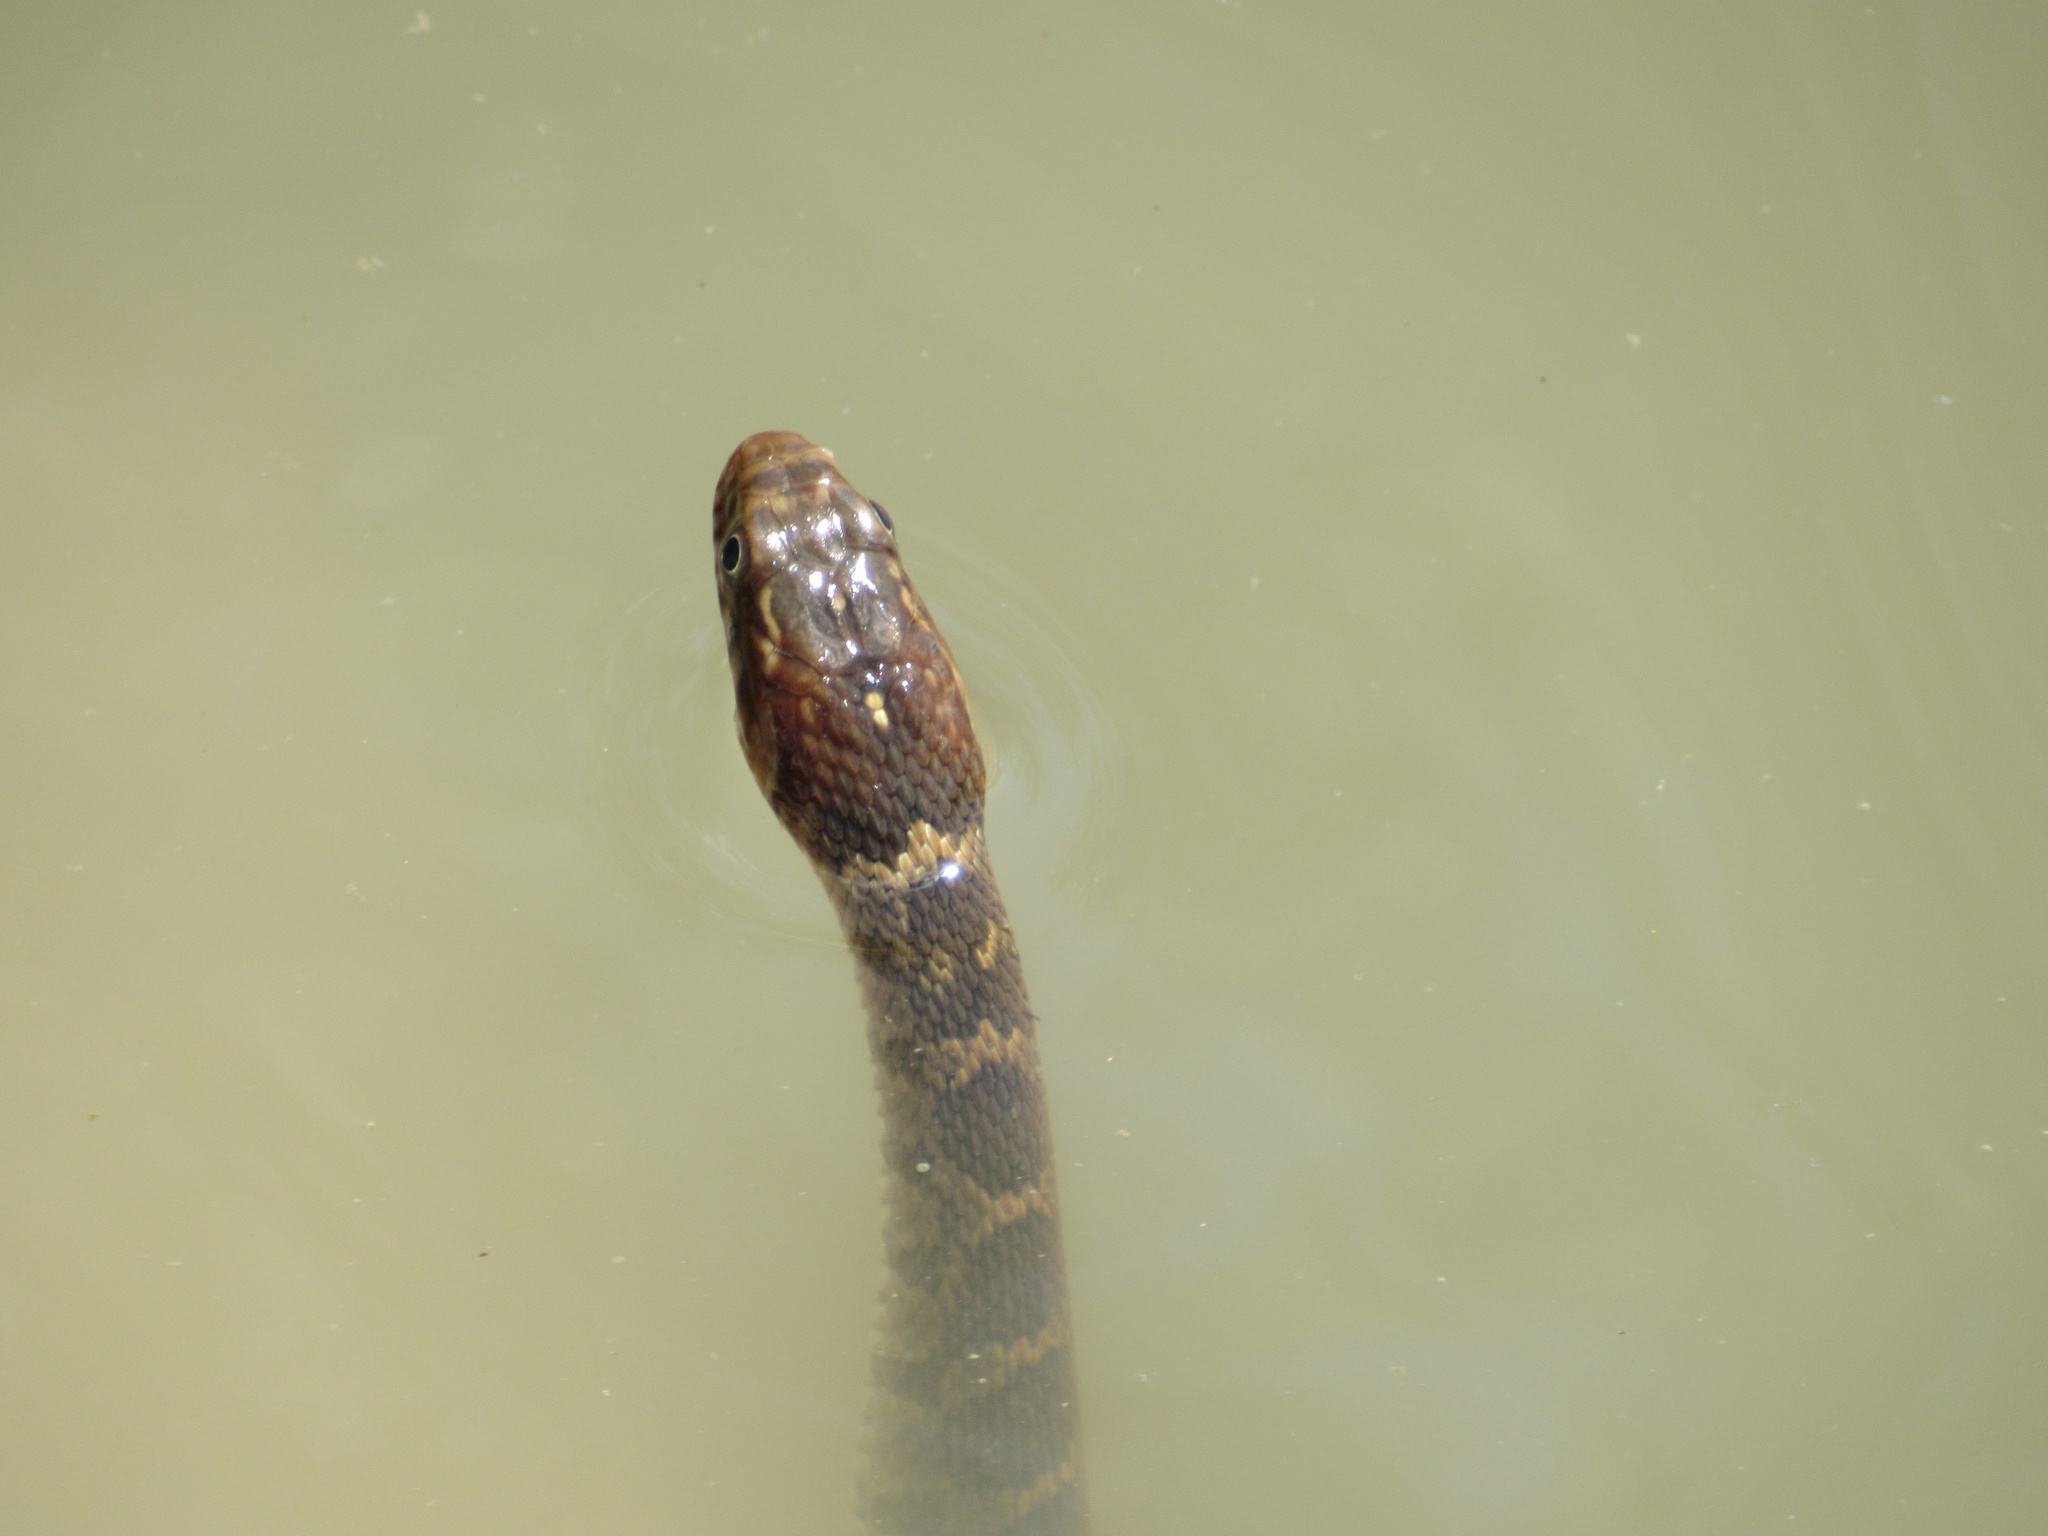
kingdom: Animalia
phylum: Chordata
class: Squamata
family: Colubridae
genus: Nerodia
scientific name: Nerodia erythrogaster
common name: Plainbelly water snake
